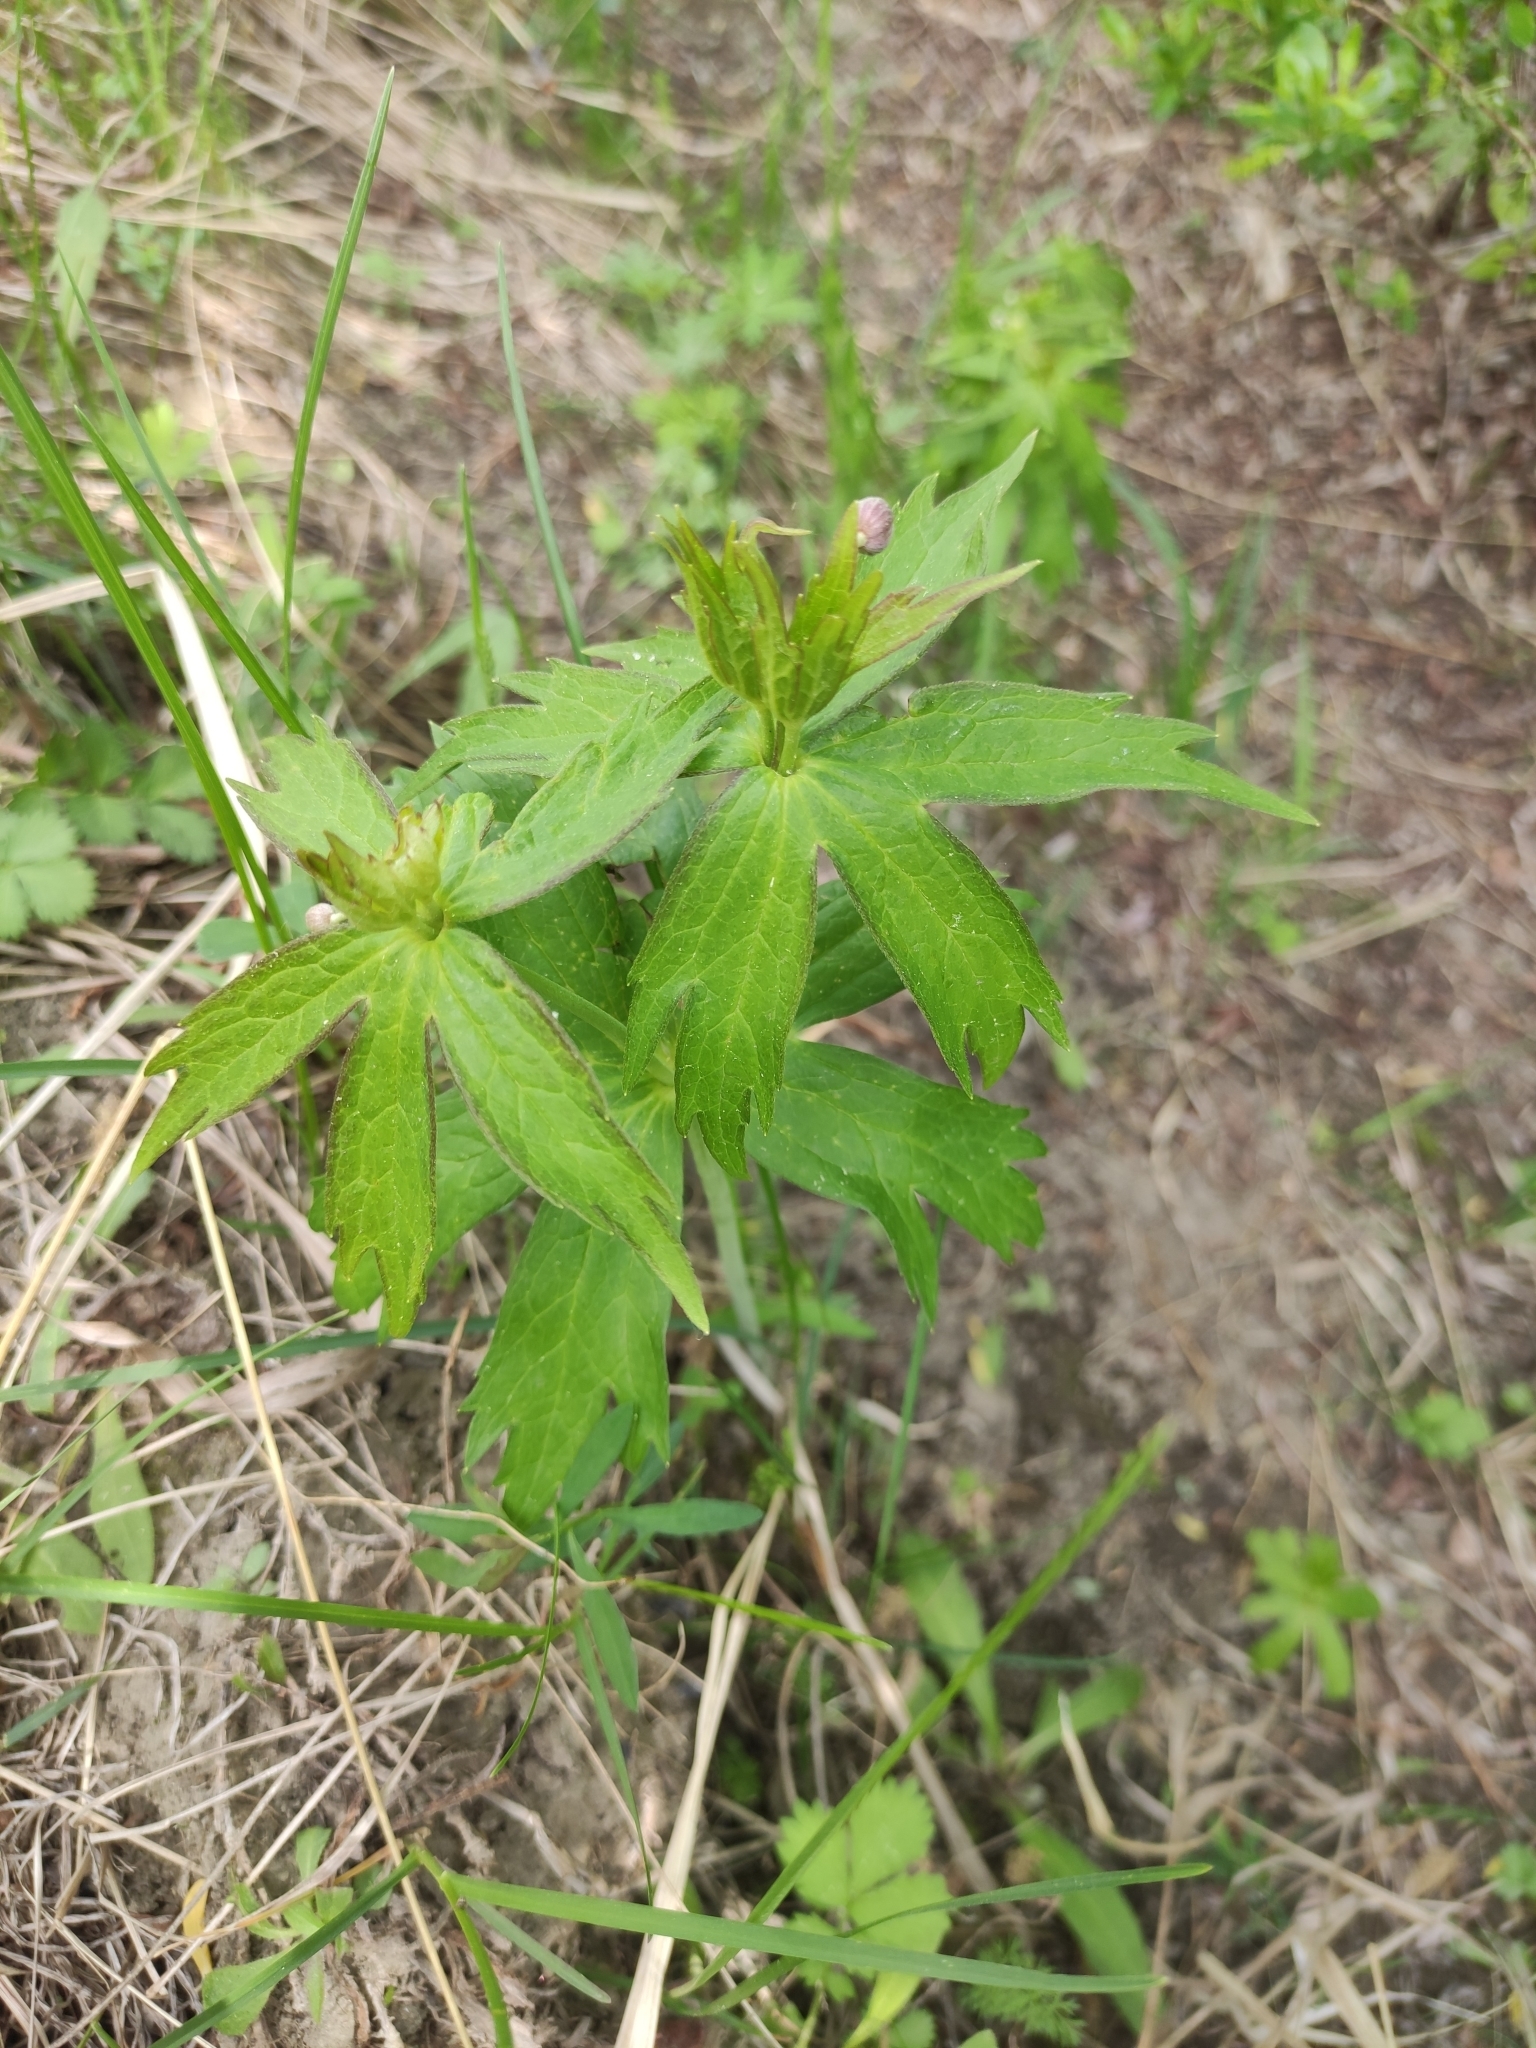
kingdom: Plantae
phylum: Tracheophyta
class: Magnoliopsida
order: Ranunculales
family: Ranunculaceae
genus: Anemonastrum
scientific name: Anemonastrum dichotomum
